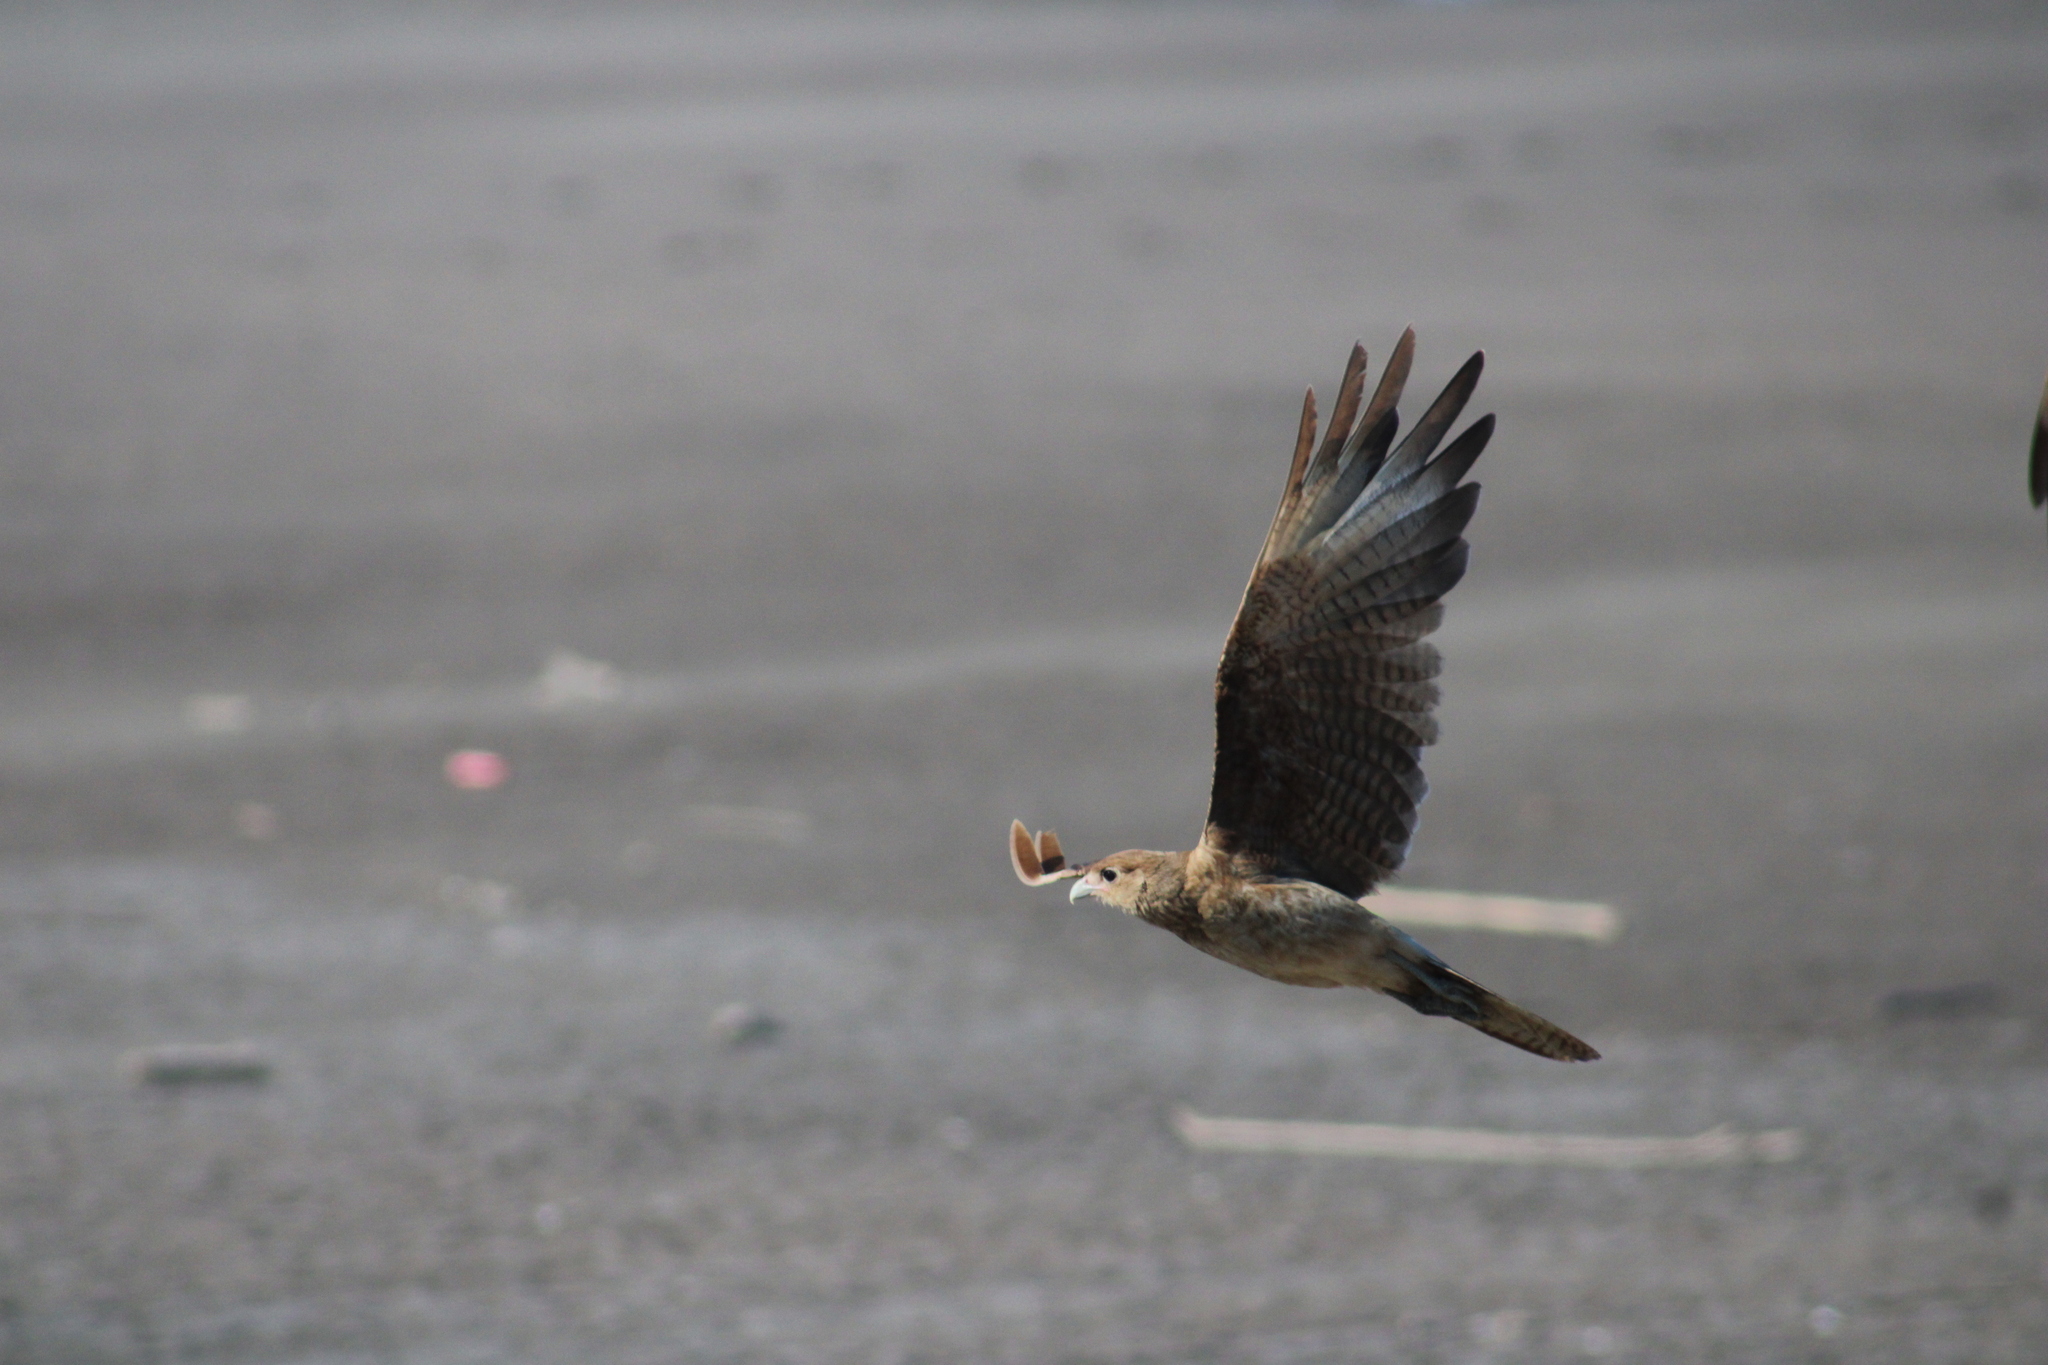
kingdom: Animalia
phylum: Chordata
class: Aves
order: Falconiformes
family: Falconidae
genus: Daptrius
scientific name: Daptrius
